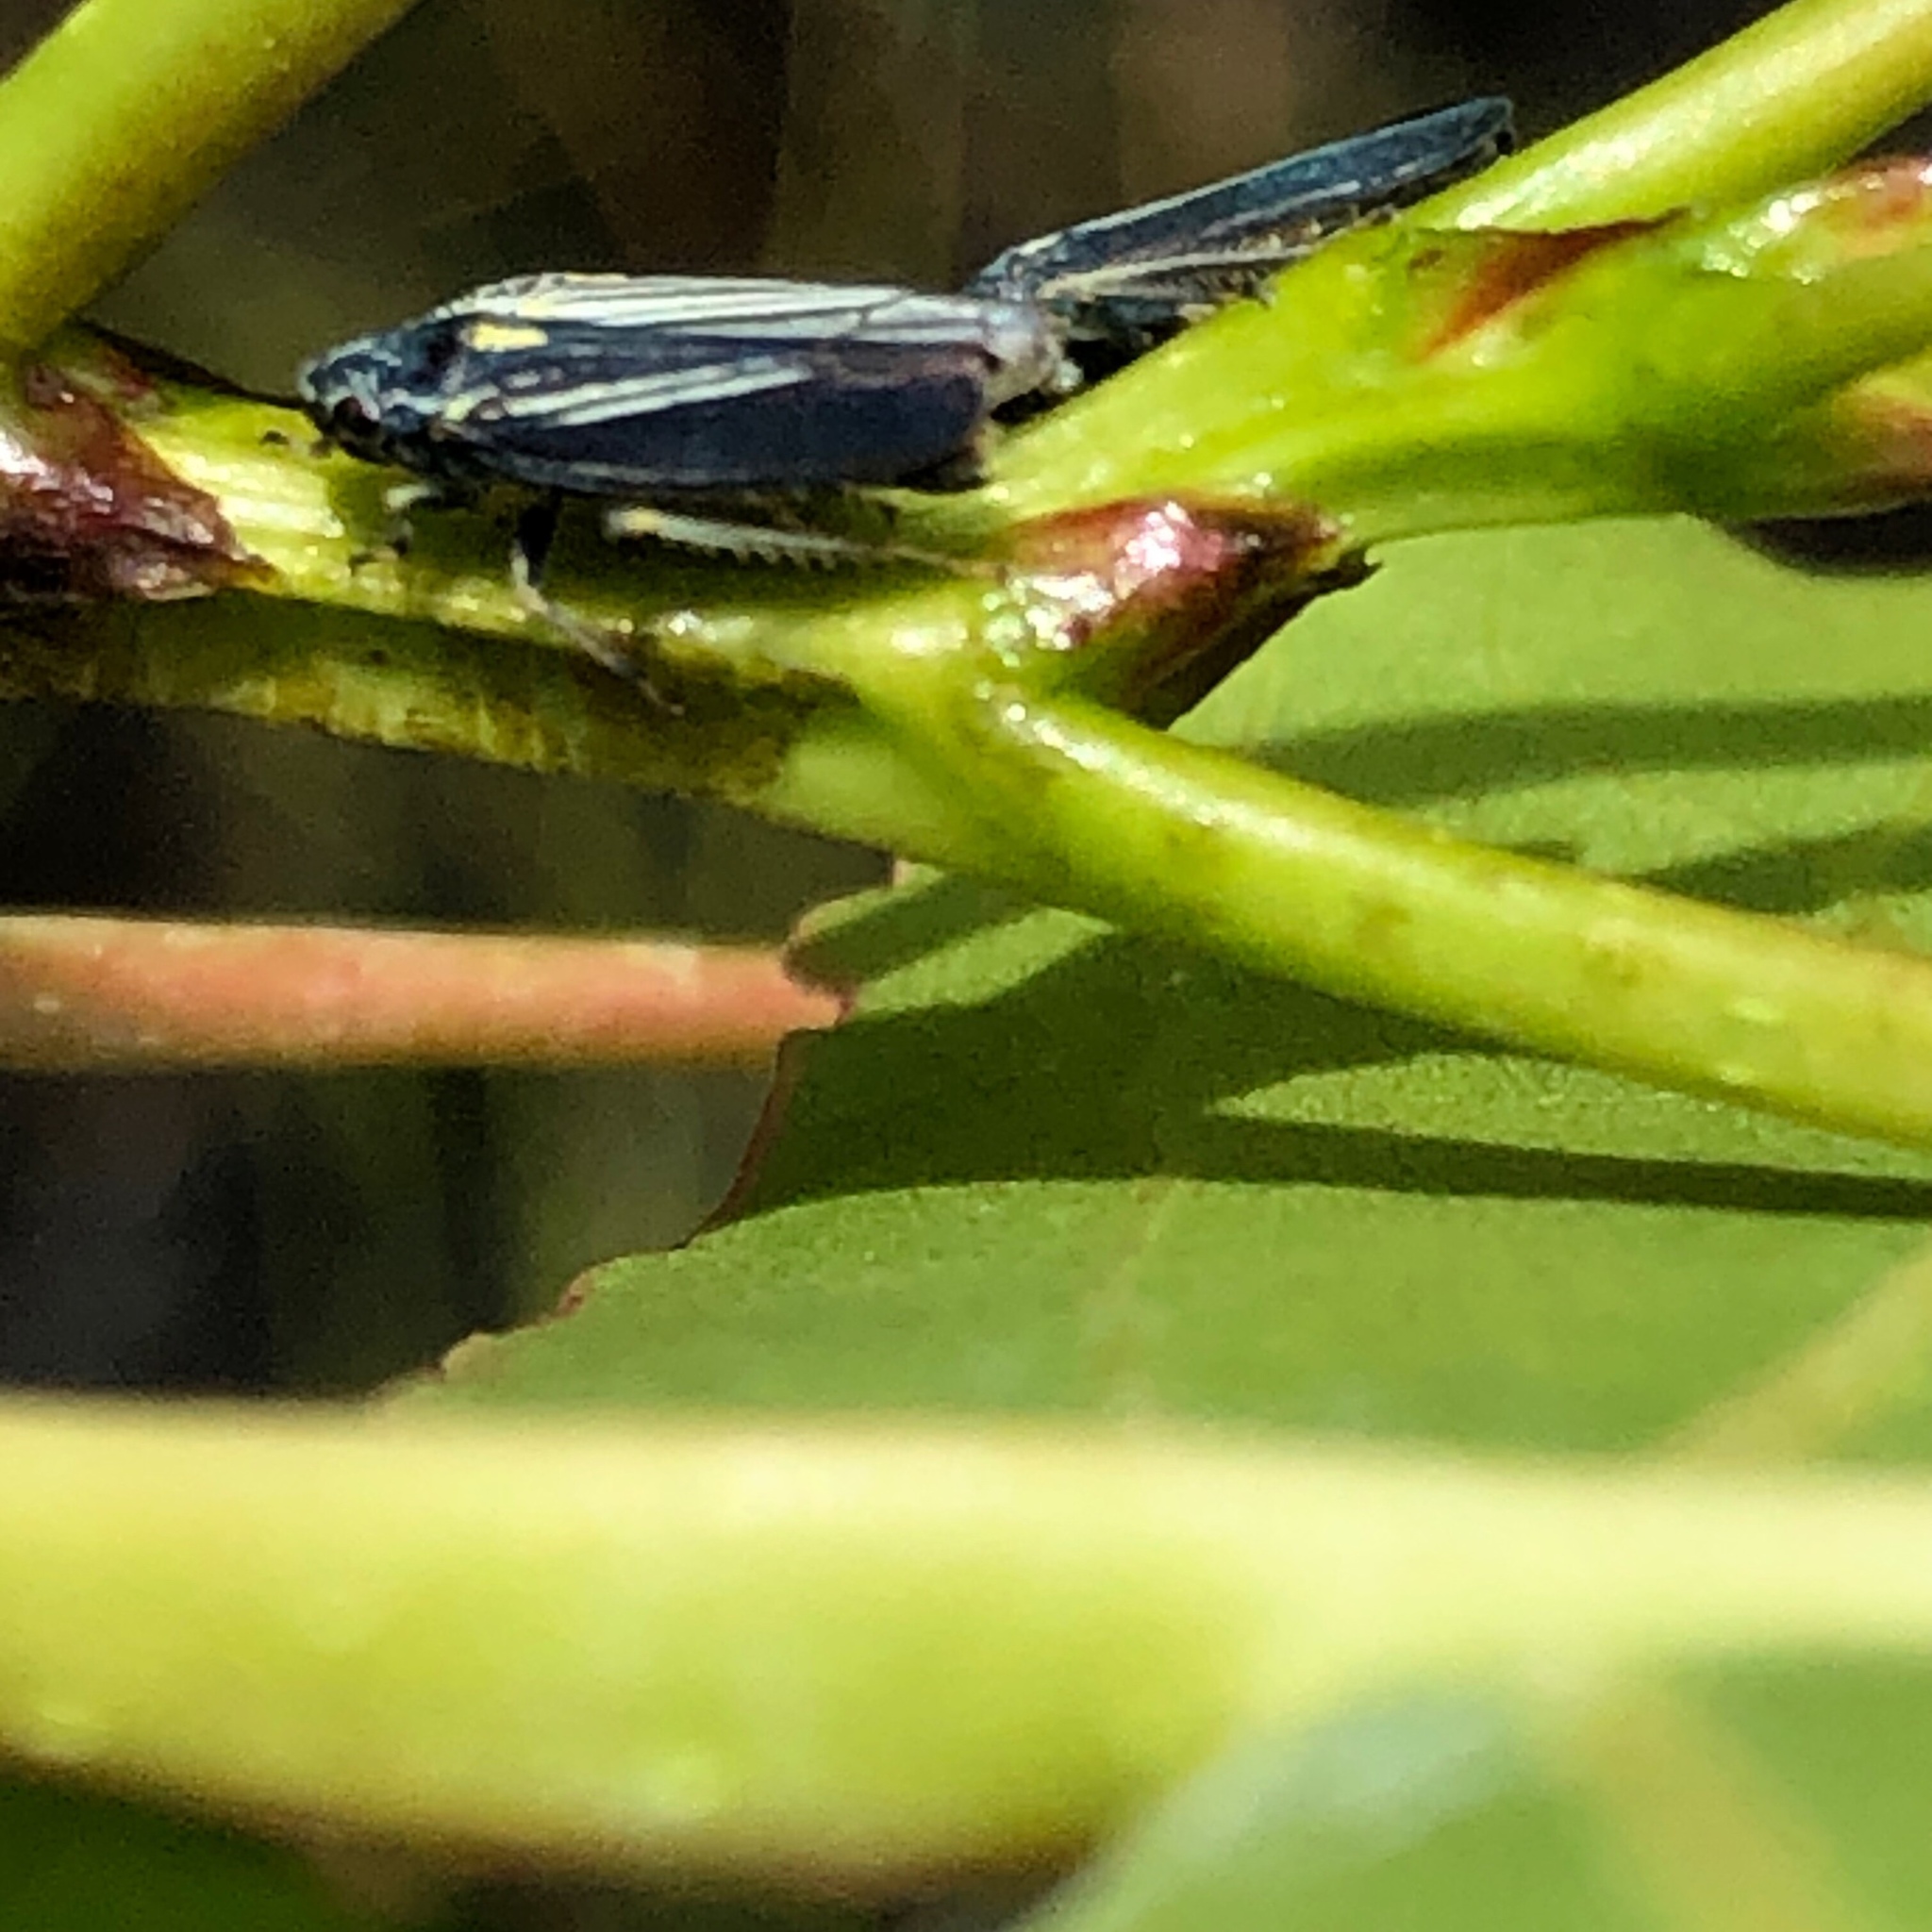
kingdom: Animalia
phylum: Arthropoda
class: Insecta
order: Hemiptera
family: Cicadellidae
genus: Neokolla
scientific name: Neokolla hieroglyphica
